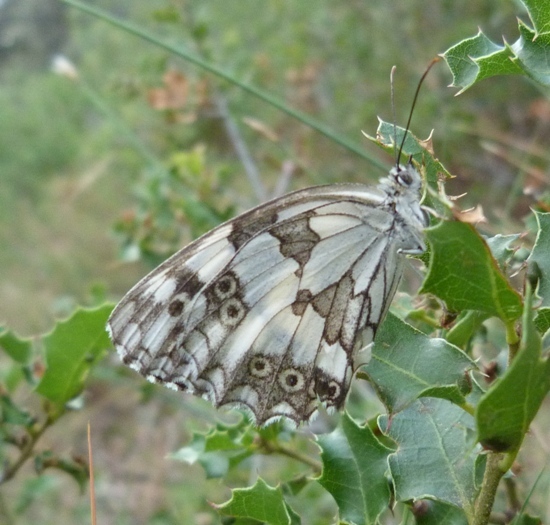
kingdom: Animalia
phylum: Arthropoda
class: Insecta
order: Lepidoptera
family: Nymphalidae
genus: Melanargia
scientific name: Melanargia lachesis
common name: Iberian marbled white
